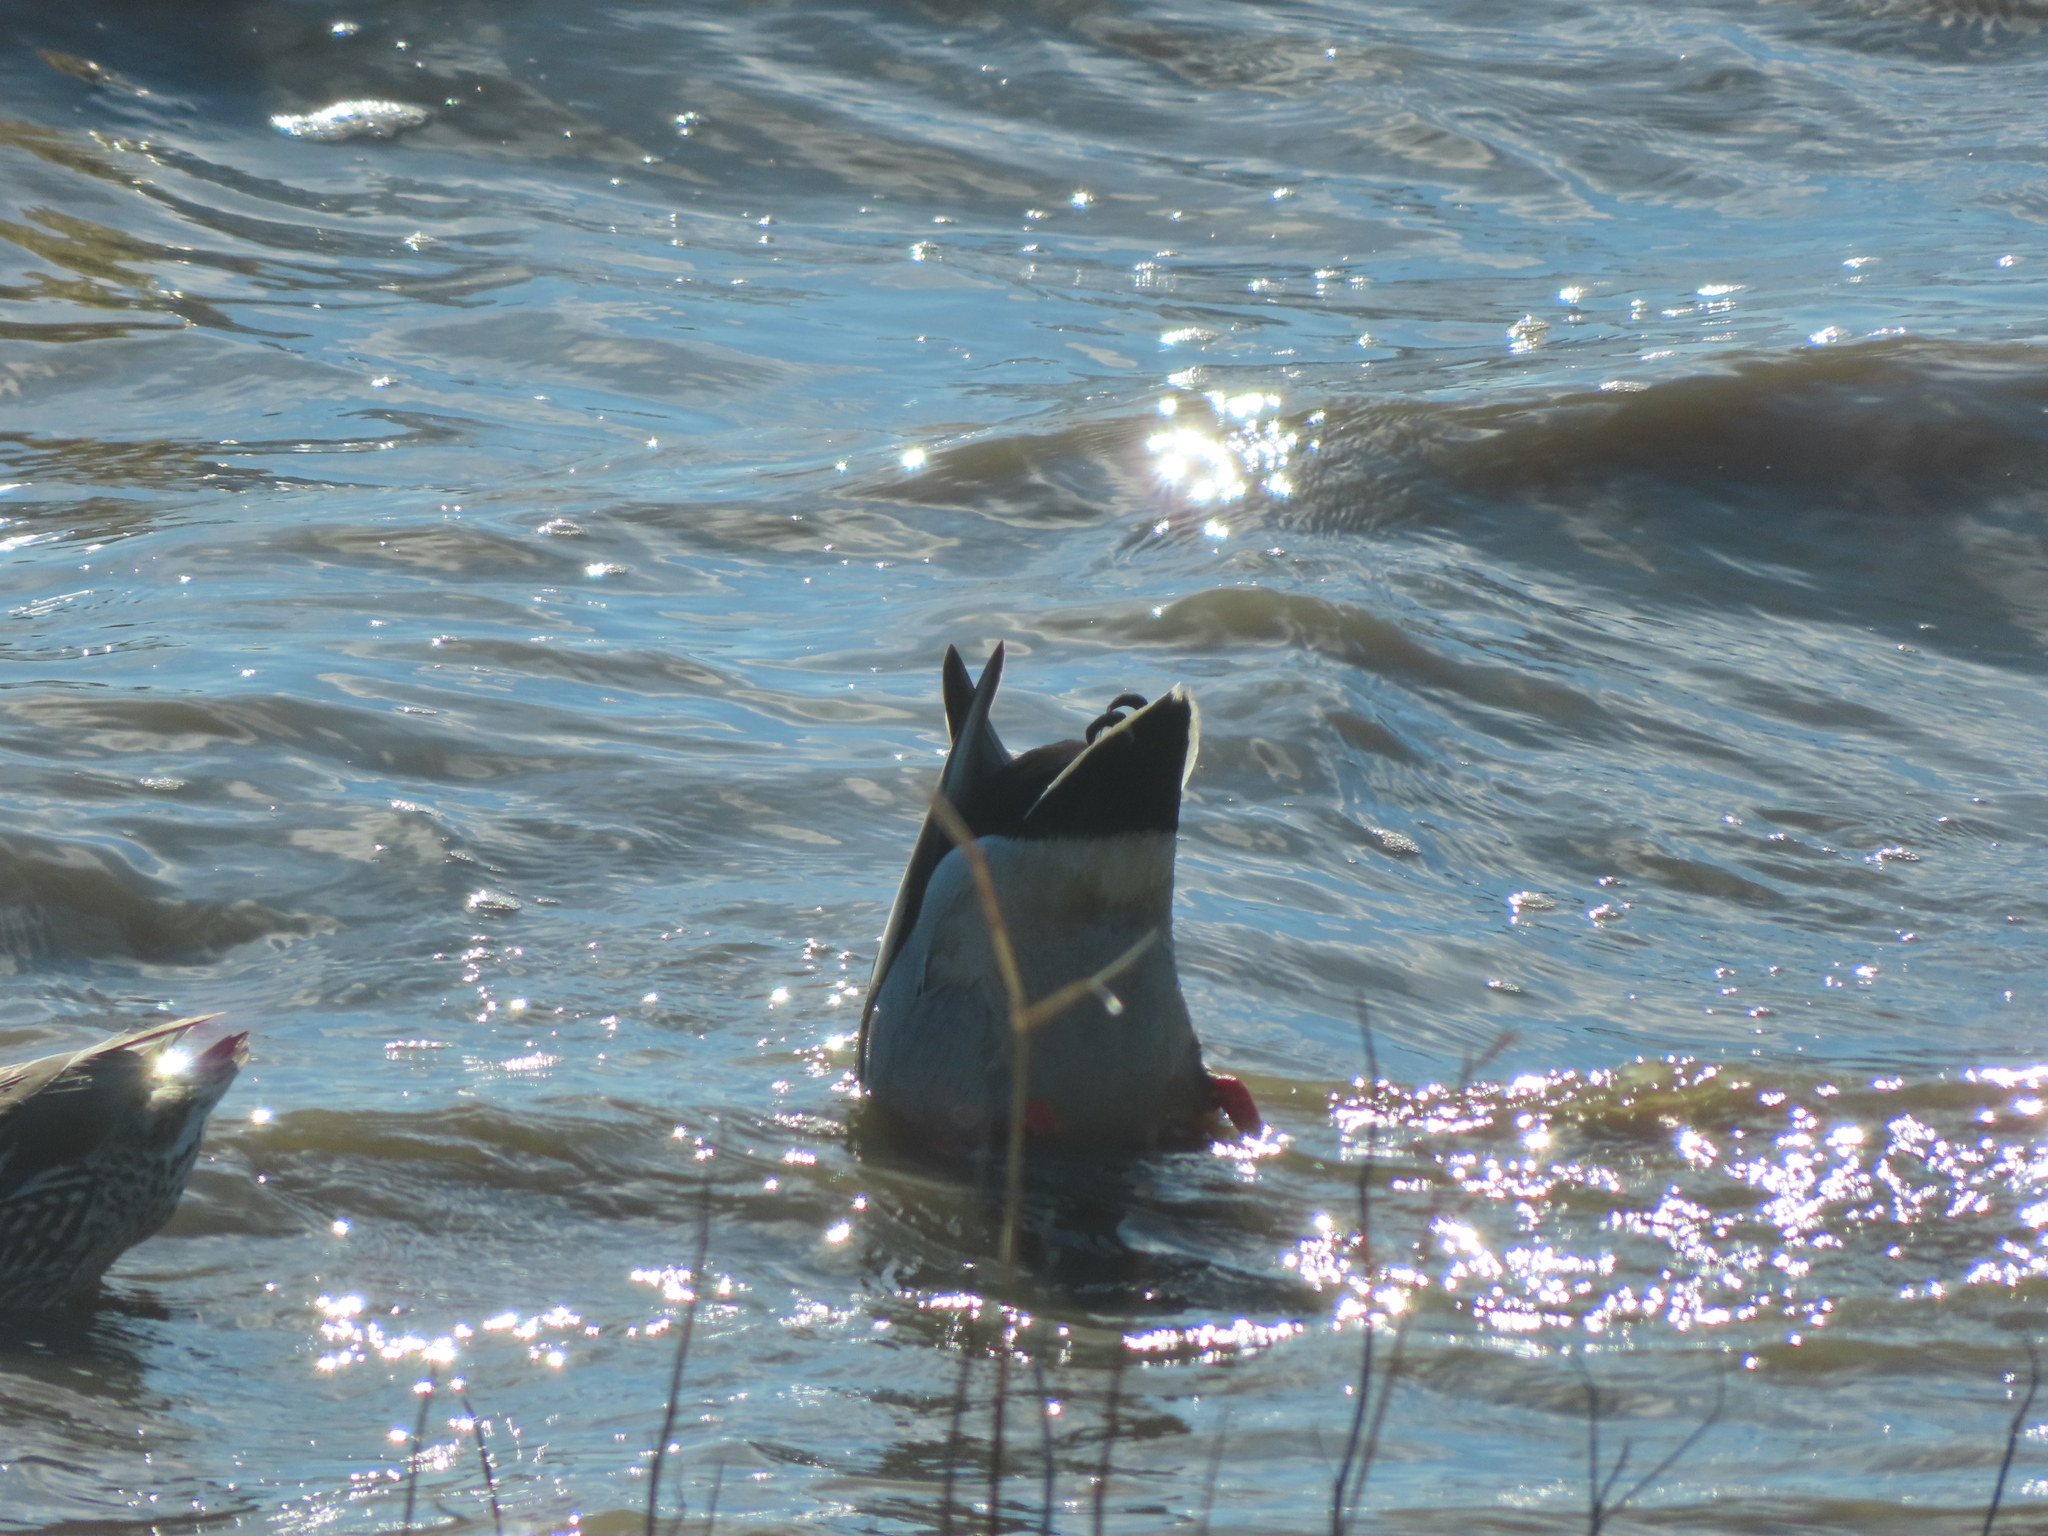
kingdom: Animalia
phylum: Chordata
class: Aves
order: Anseriformes
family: Anatidae
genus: Anas
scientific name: Anas platyrhynchos
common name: Mallard
